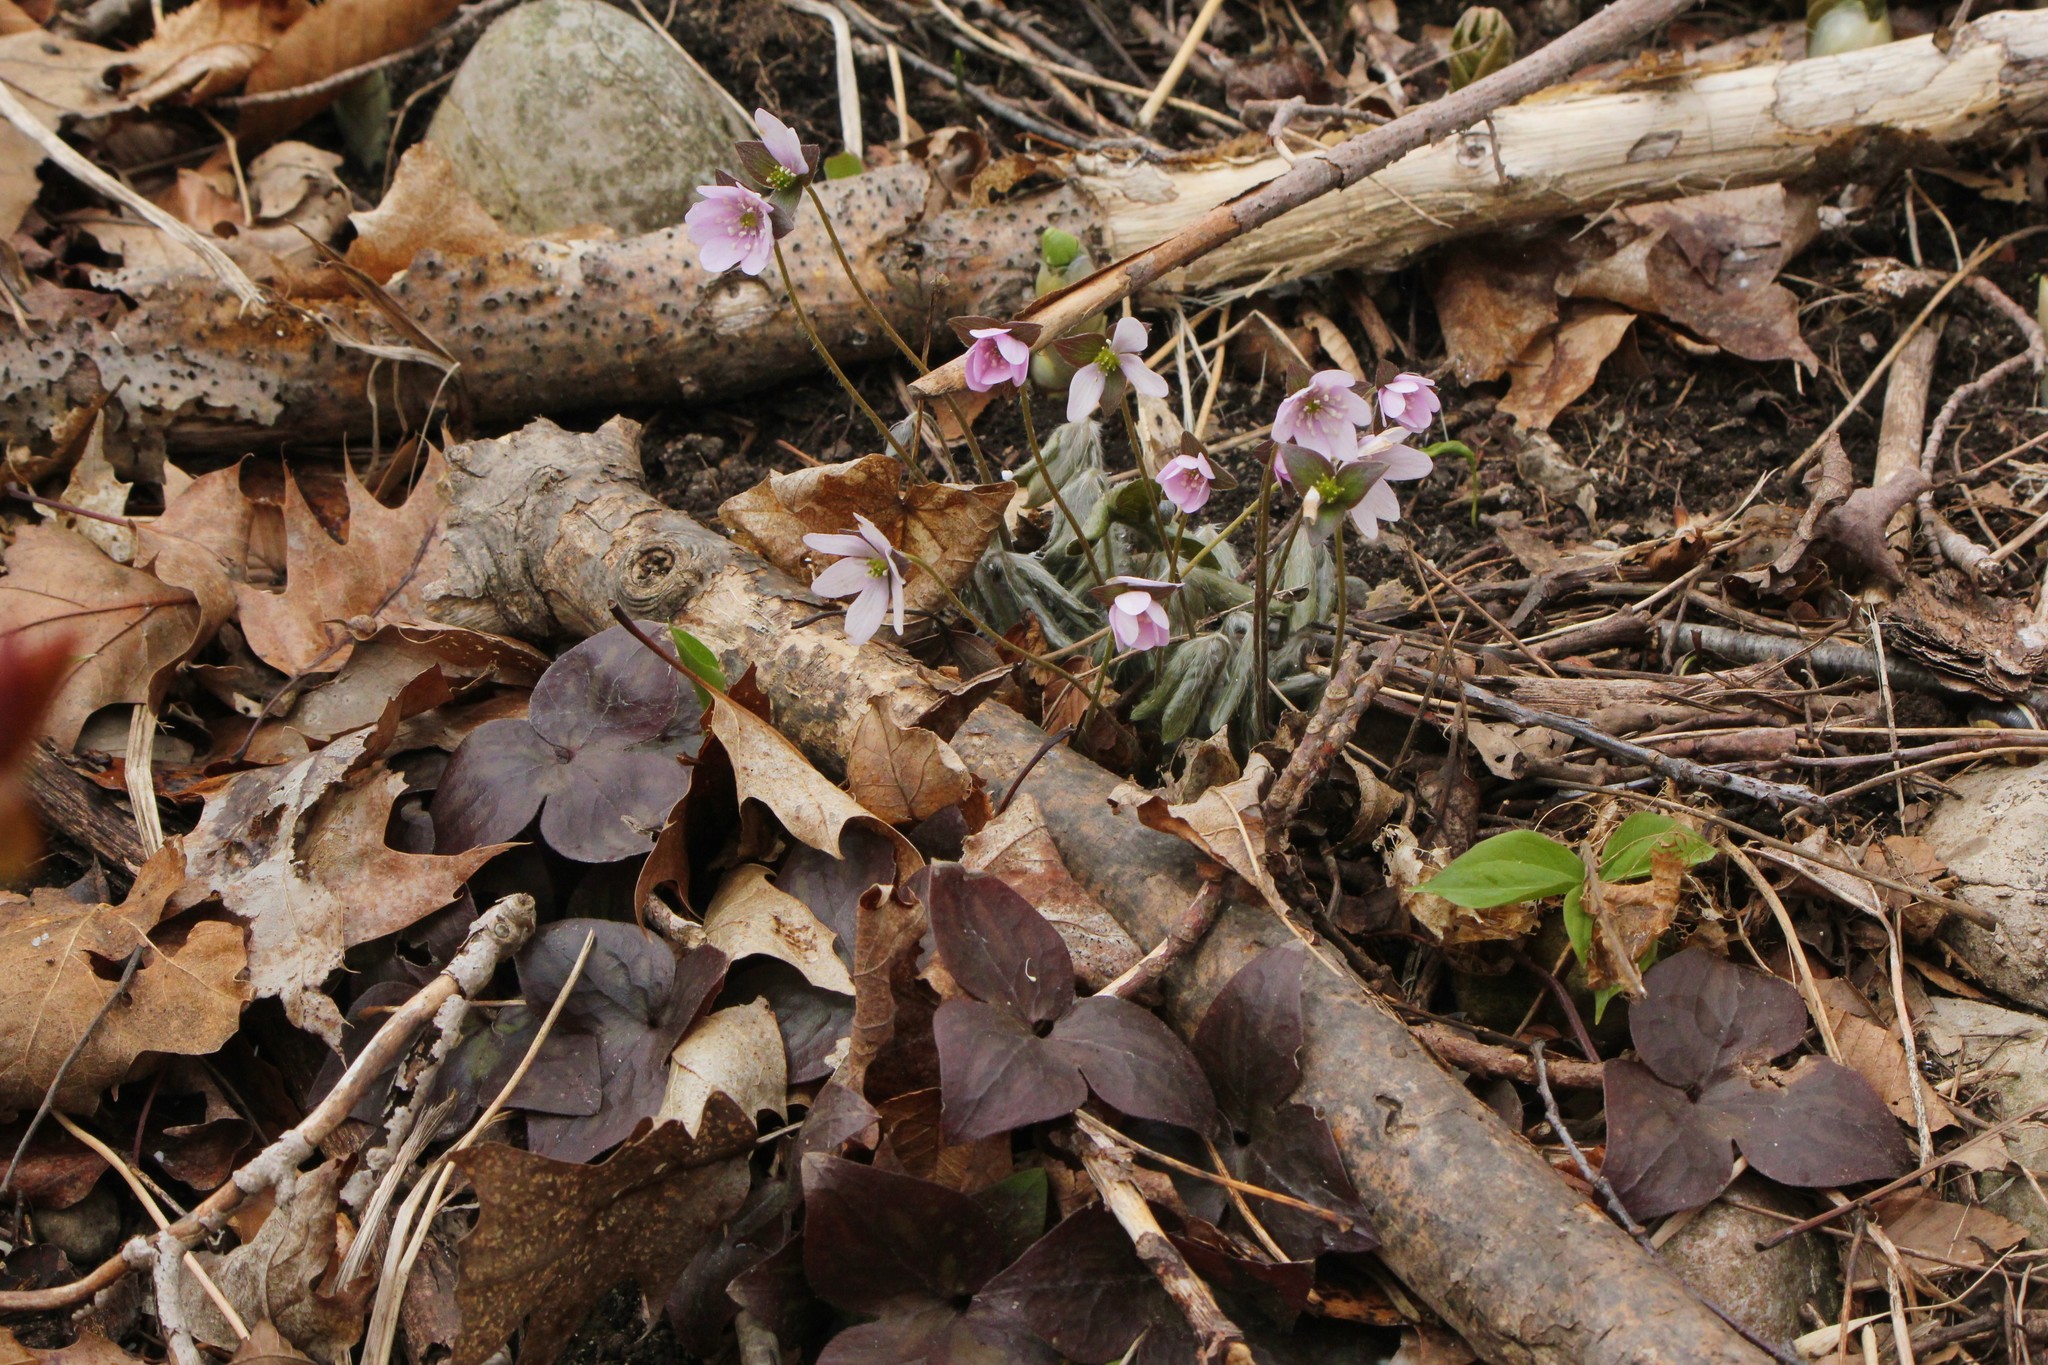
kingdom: Plantae
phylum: Tracheophyta
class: Magnoliopsida
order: Ranunculales
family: Ranunculaceae
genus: Hepatica
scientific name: Hepatica acutiloba
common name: Sharp-lobed hepatica
